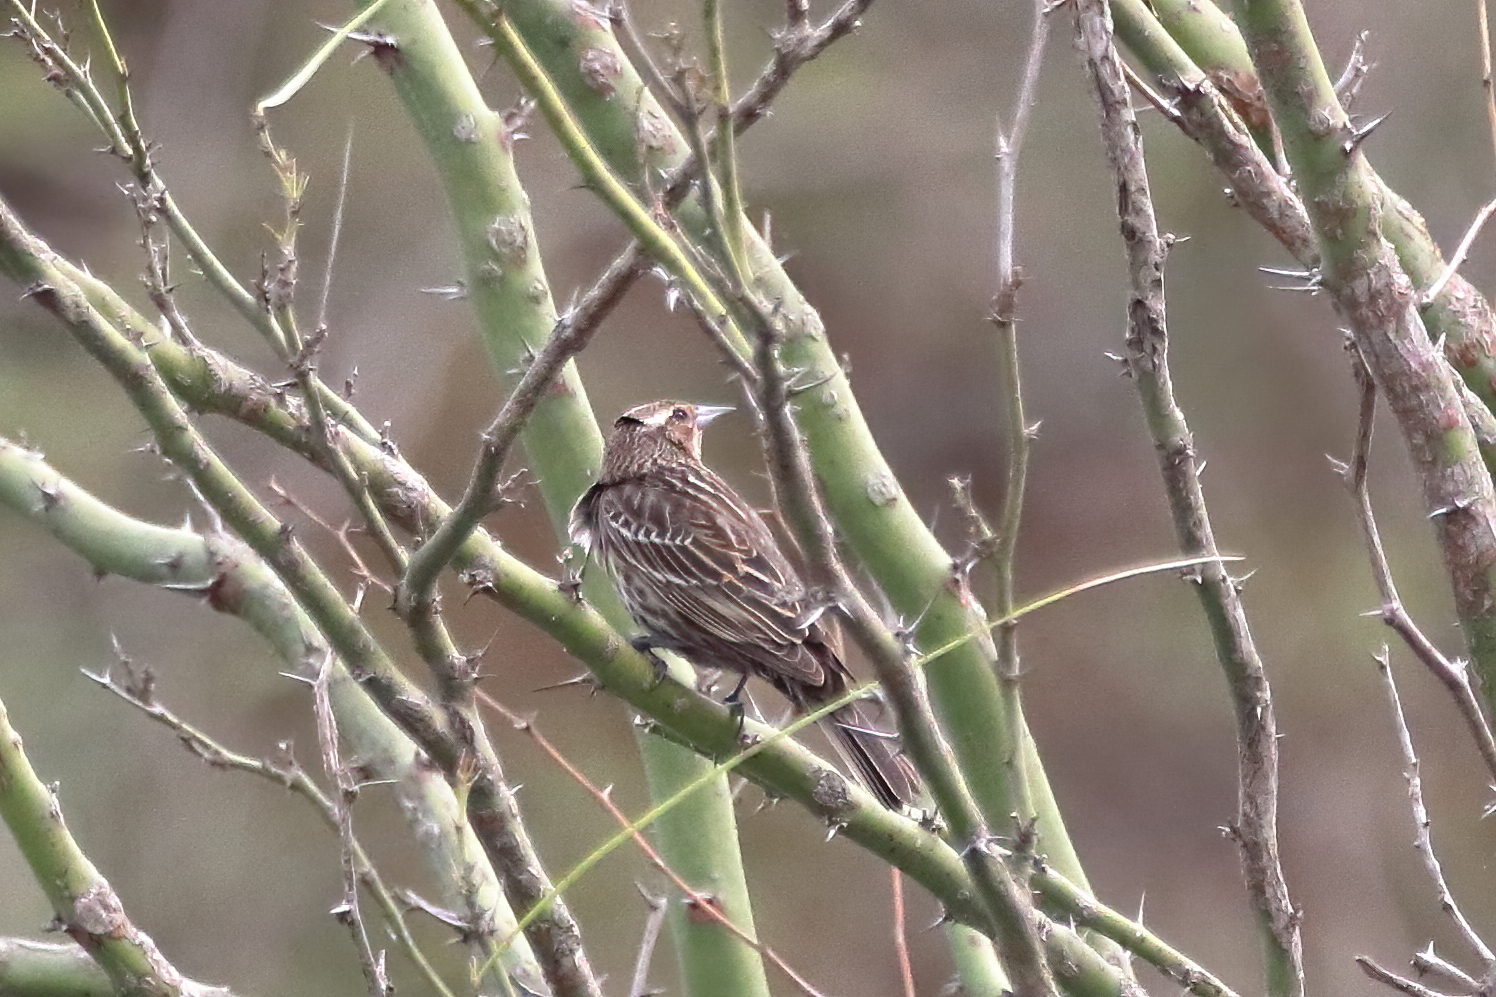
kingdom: Animalia
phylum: Chordata
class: Aves
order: Passeriformes
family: Icteridae
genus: Agelaius
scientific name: Agelaius phoeniceus
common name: Red-winged blackbird
